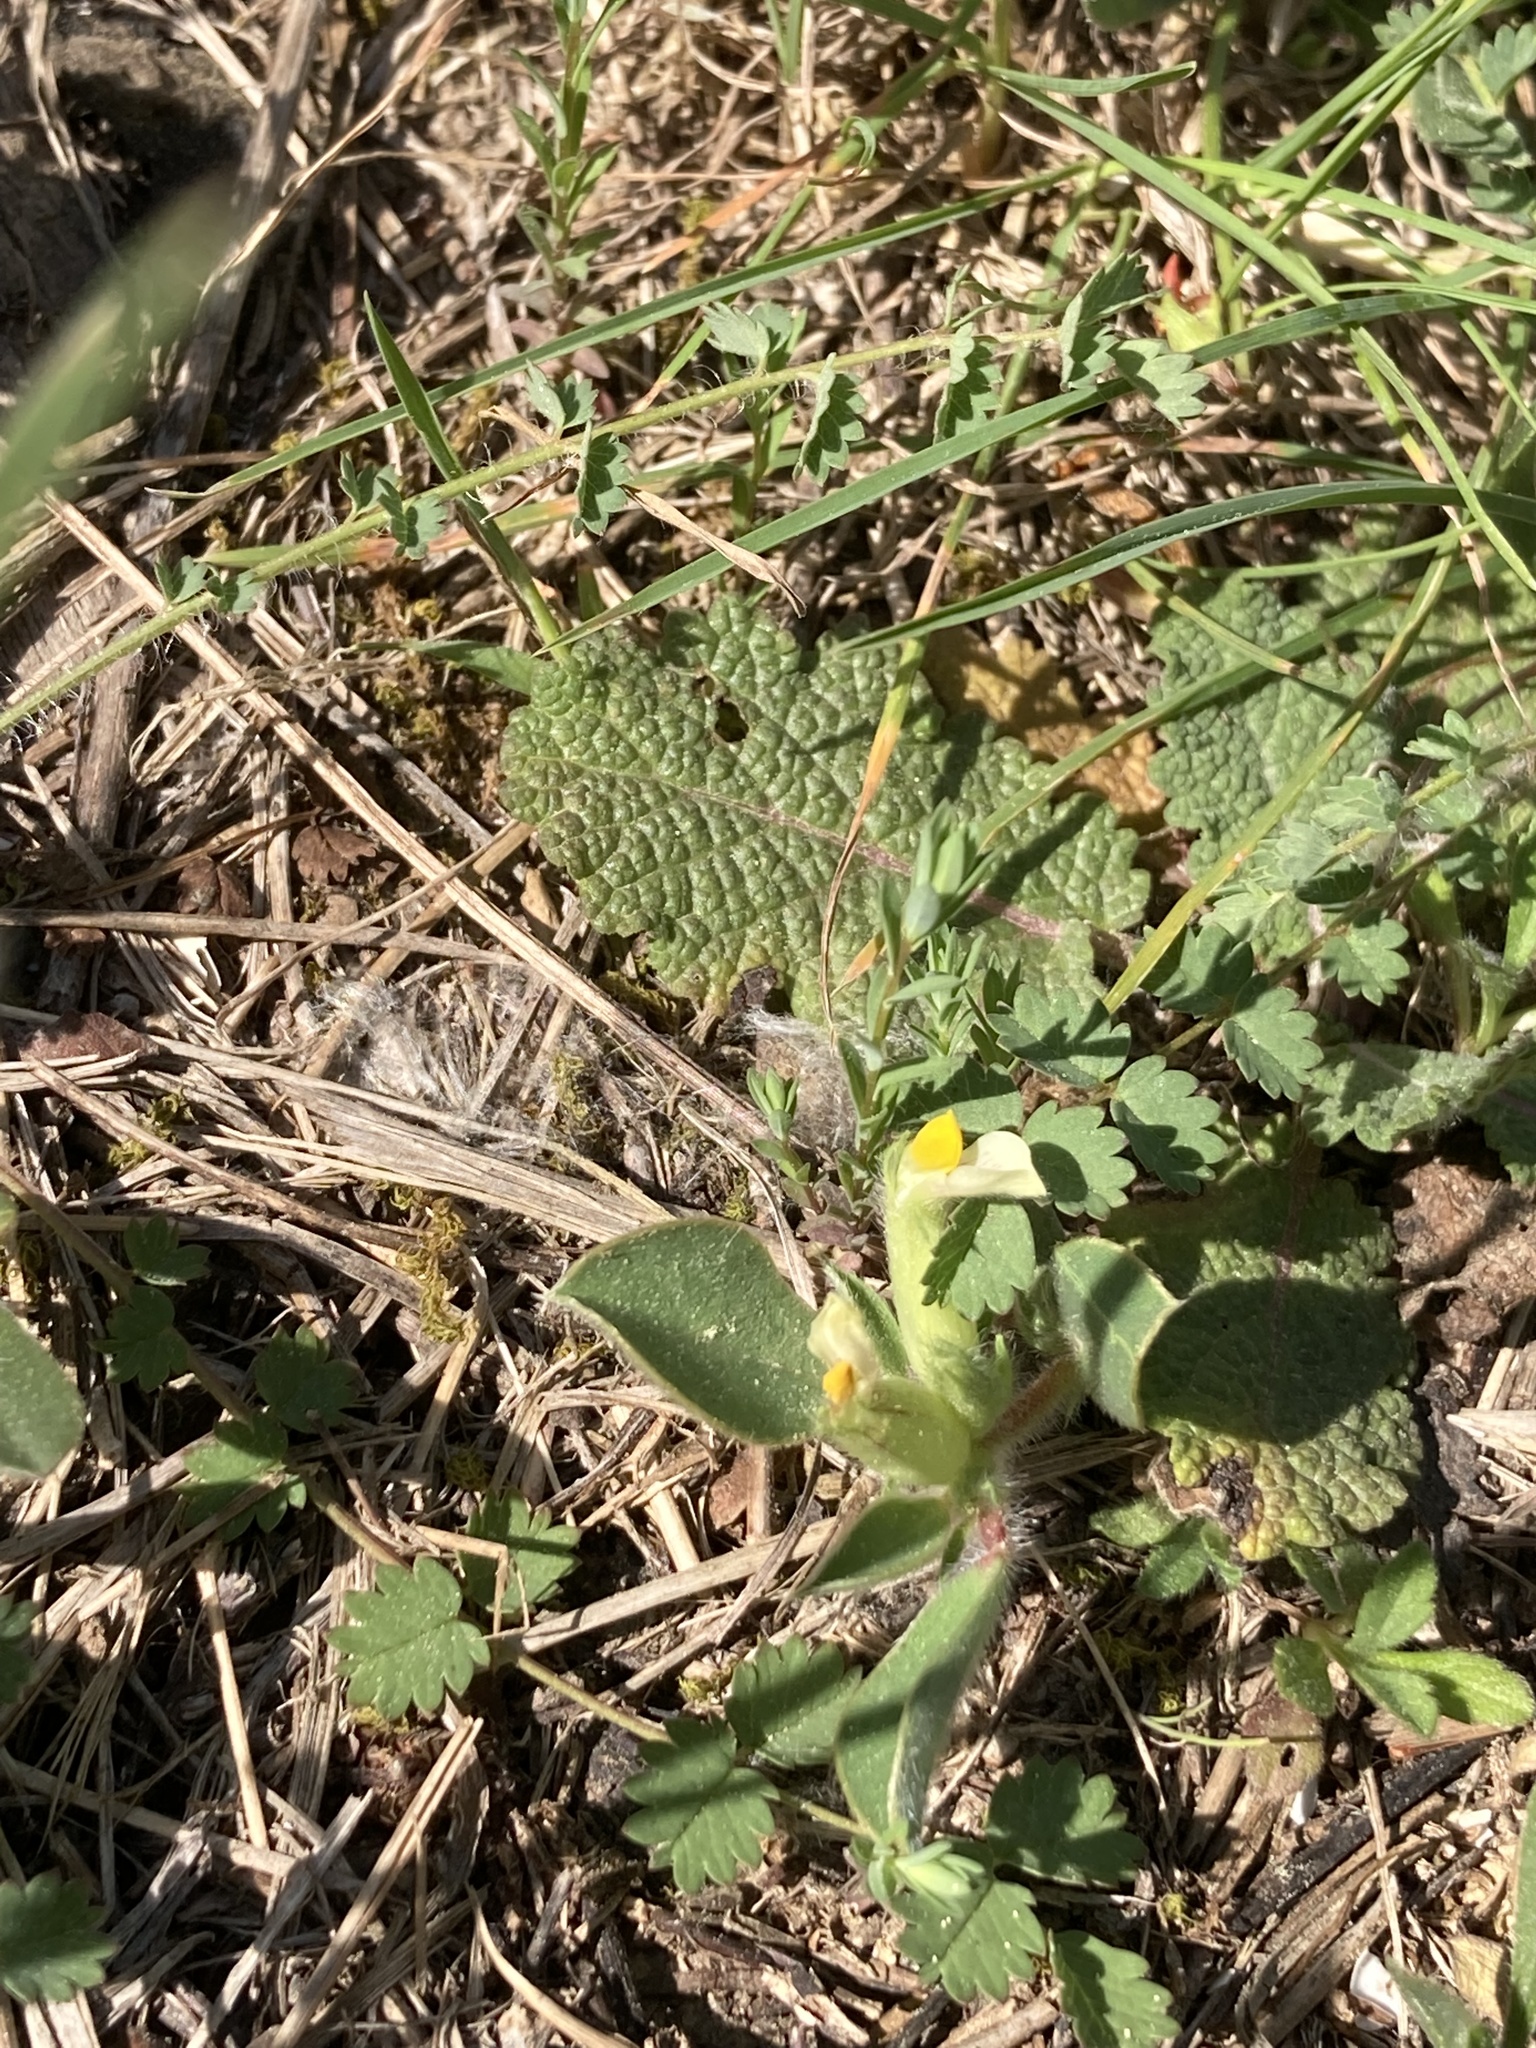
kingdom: Plantae
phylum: Tracheophyta
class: Magnoliopsida
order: Fabales
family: Fabaceae
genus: Tripodion
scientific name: Tripodion tetraphyllum
